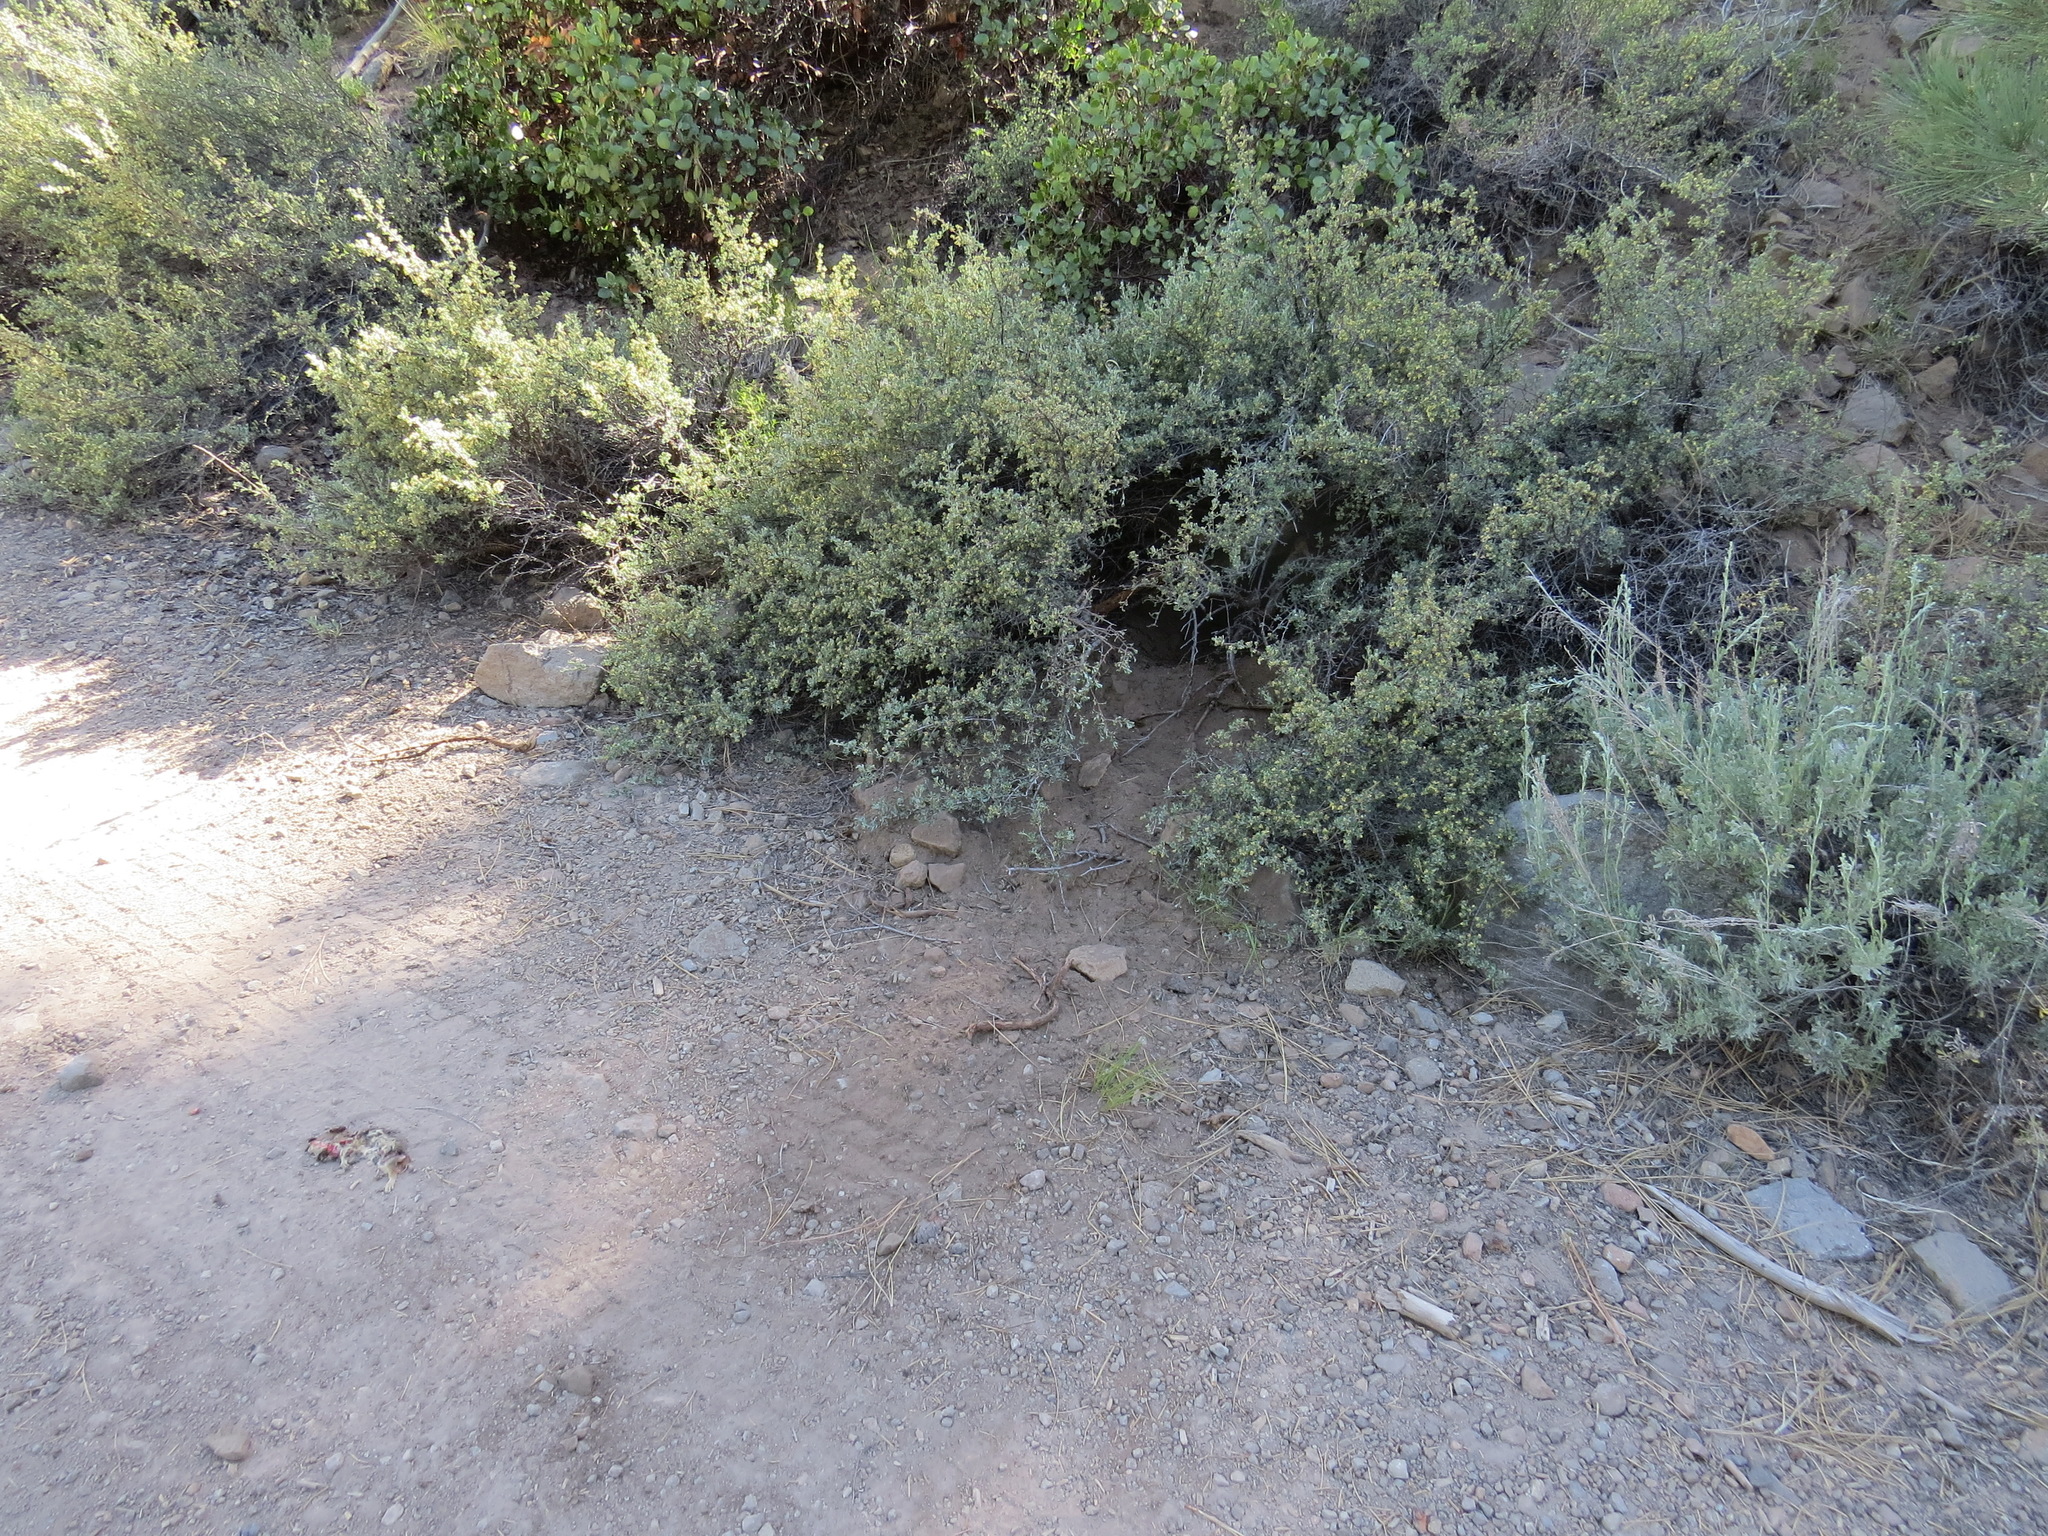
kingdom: Animalia
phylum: Chordata
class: Mammalia
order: Carnivora
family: Ursidae
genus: Ursus
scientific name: Ursus americanus
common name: American black bear
